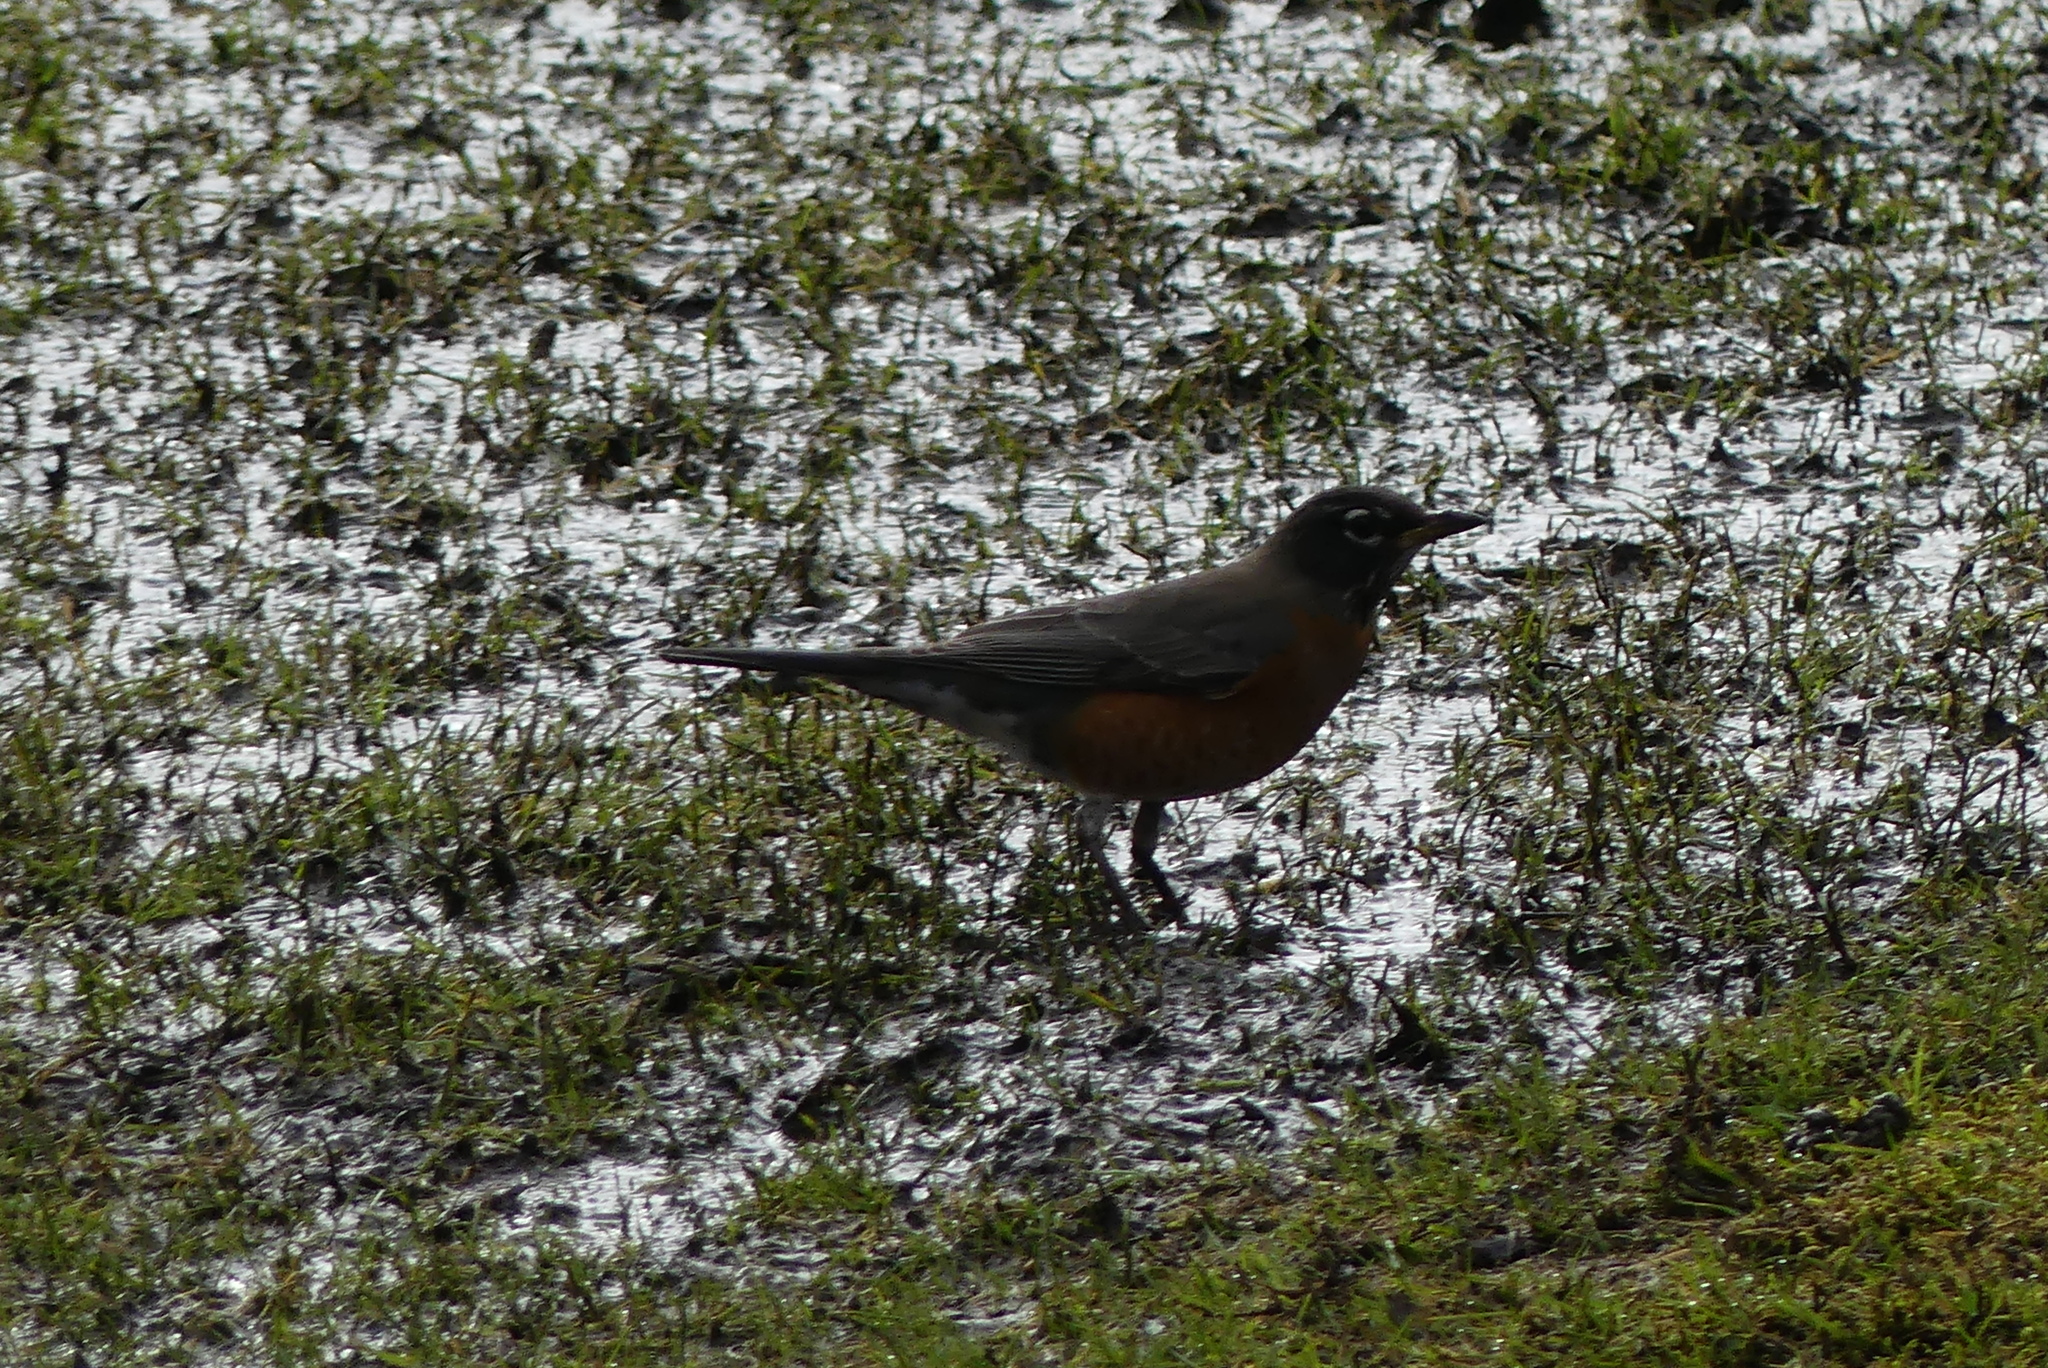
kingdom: Animalia
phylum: Chordata
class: Aves
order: Passeriformes
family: Turdidae
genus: Turdus
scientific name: Turdus migratorius
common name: American robin
